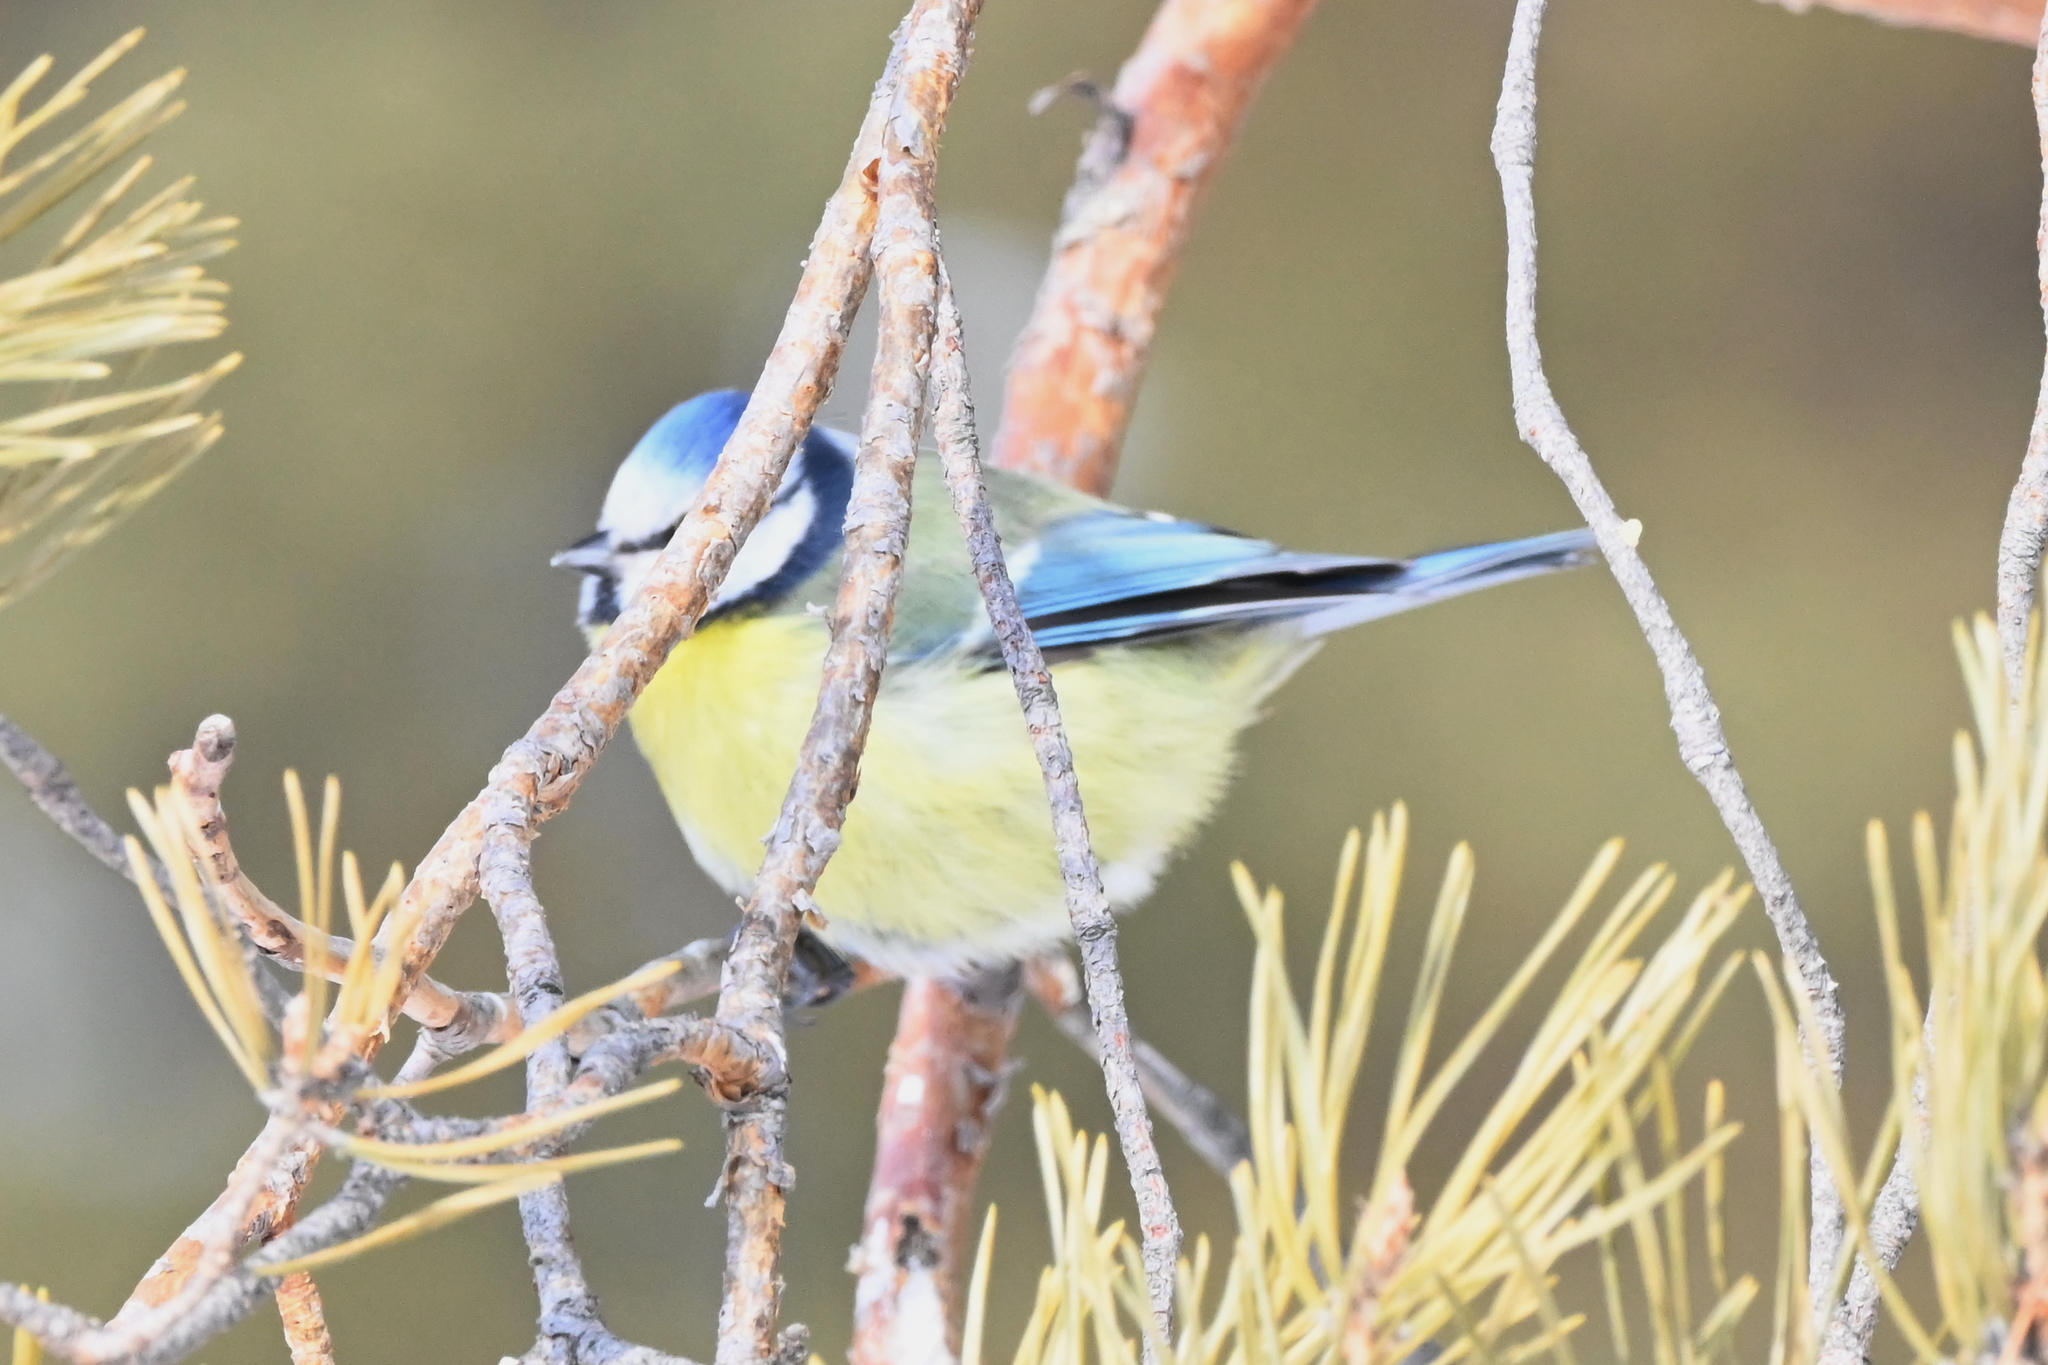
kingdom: Animalia
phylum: Chordata
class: Aves
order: Passeriformes
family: Paridae
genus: Cyanistes
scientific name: Cyanistes caeruleus
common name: Eurasian blue tit
